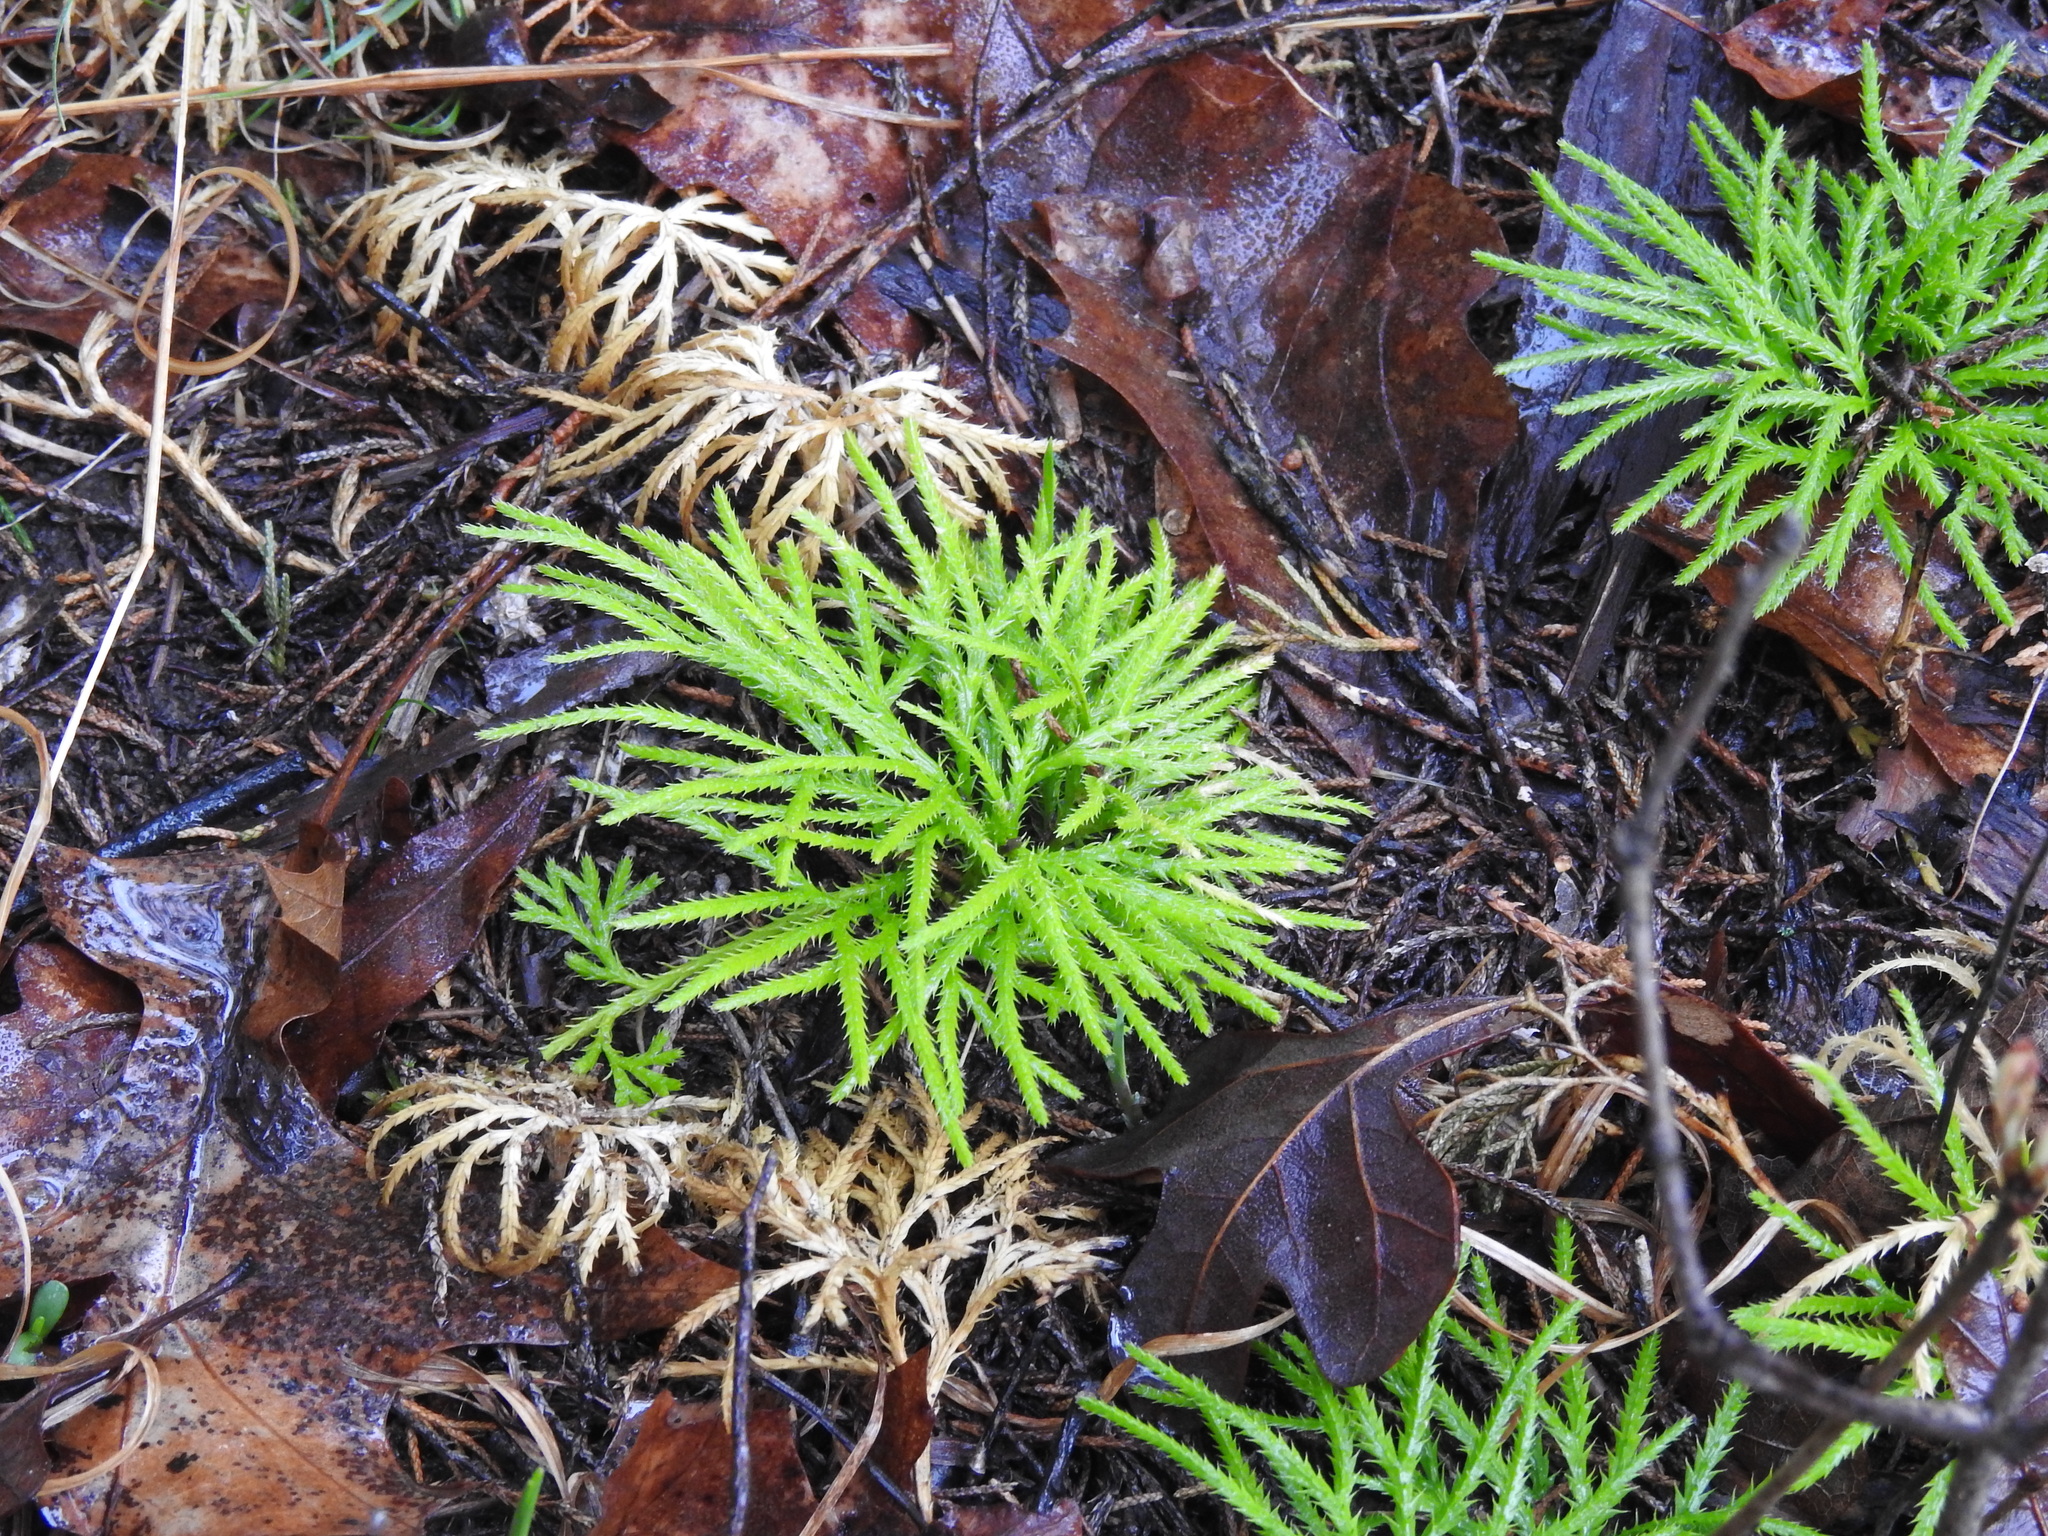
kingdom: Plantae
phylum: Tracheophyta
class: Lycopodiopsida
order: Lycopodiales
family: Lycopodiaceae
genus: Diphasiastrum
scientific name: Diphasiastrum digitatum
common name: Southern running-pine
